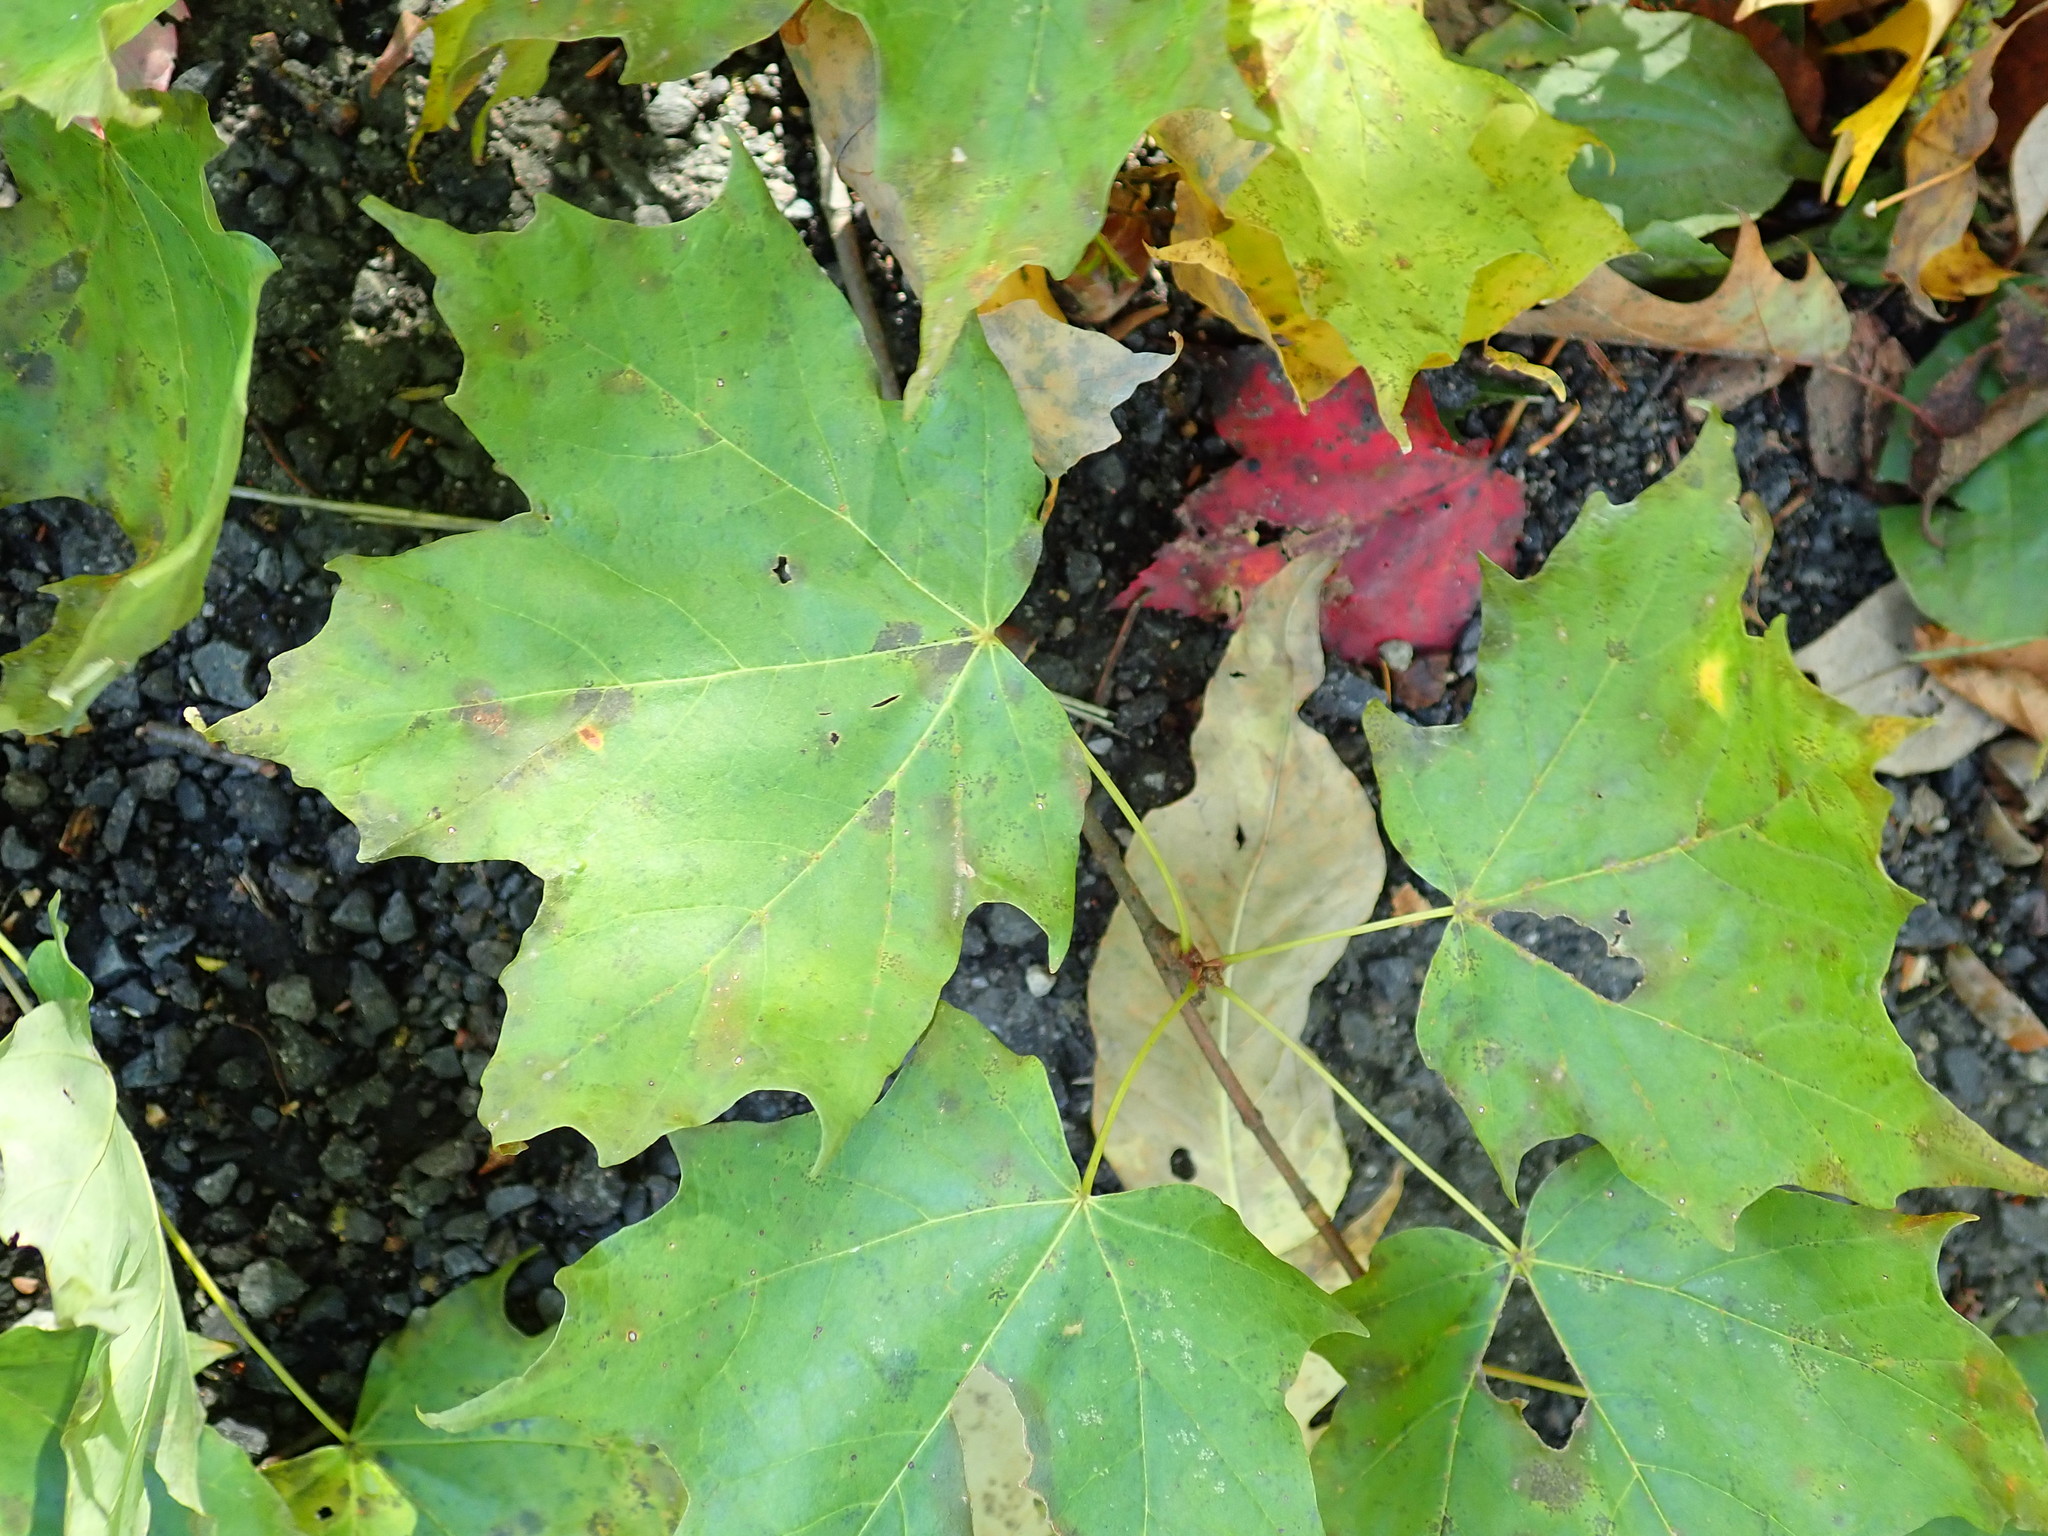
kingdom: Plantae
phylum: Tracheophyta
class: Magnoliopsida
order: Sapindales
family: Sapindaceae
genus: Acer
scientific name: Acer saccharum
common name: Sugar maple
